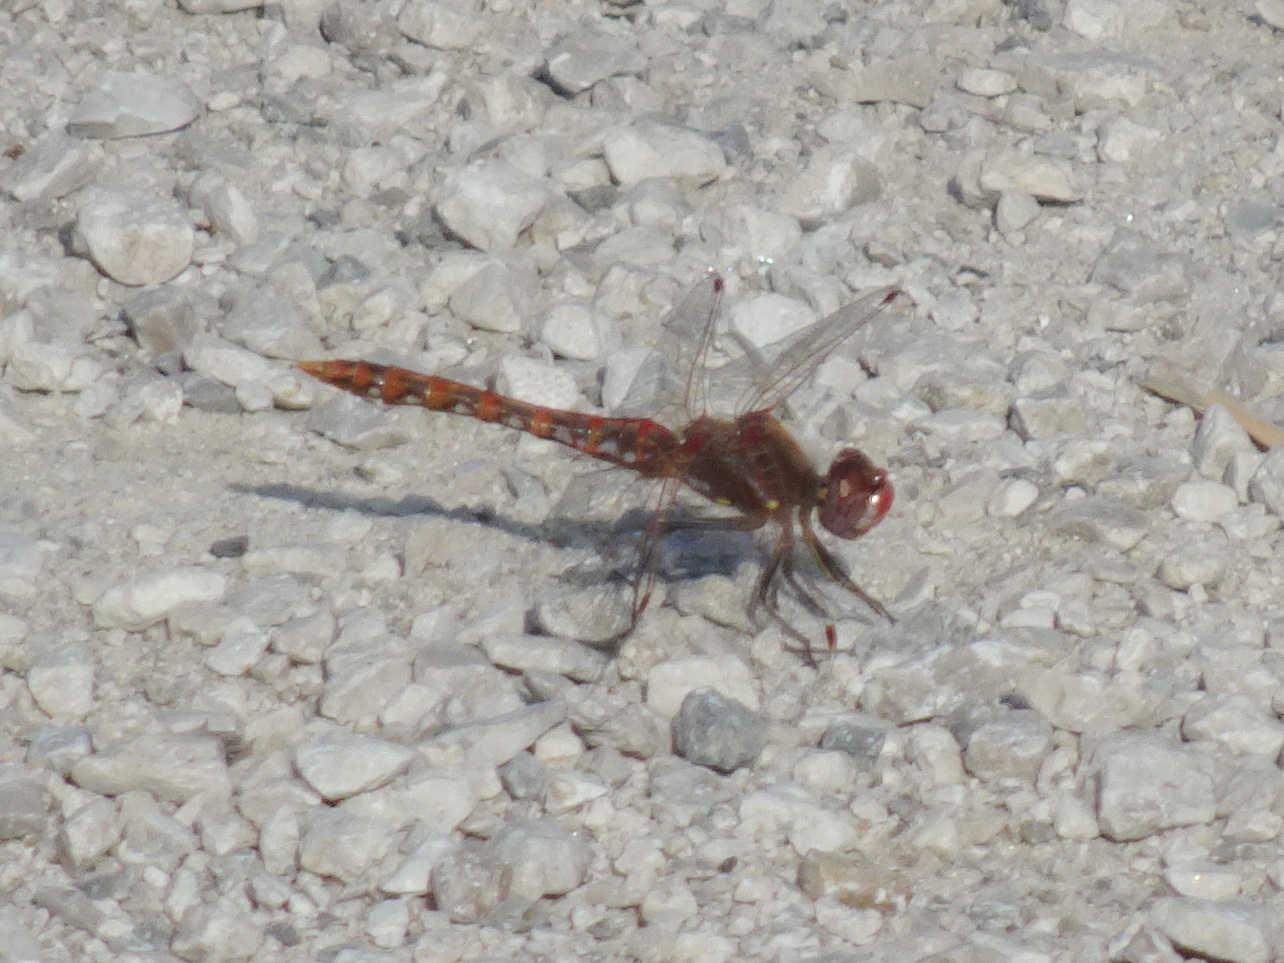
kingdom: Animalia
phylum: Arthropoda
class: Insecta
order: Odonata
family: Libellulidae
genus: Sympetrum
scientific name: Sympetrum corruptum
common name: Variegated meadowhawk
